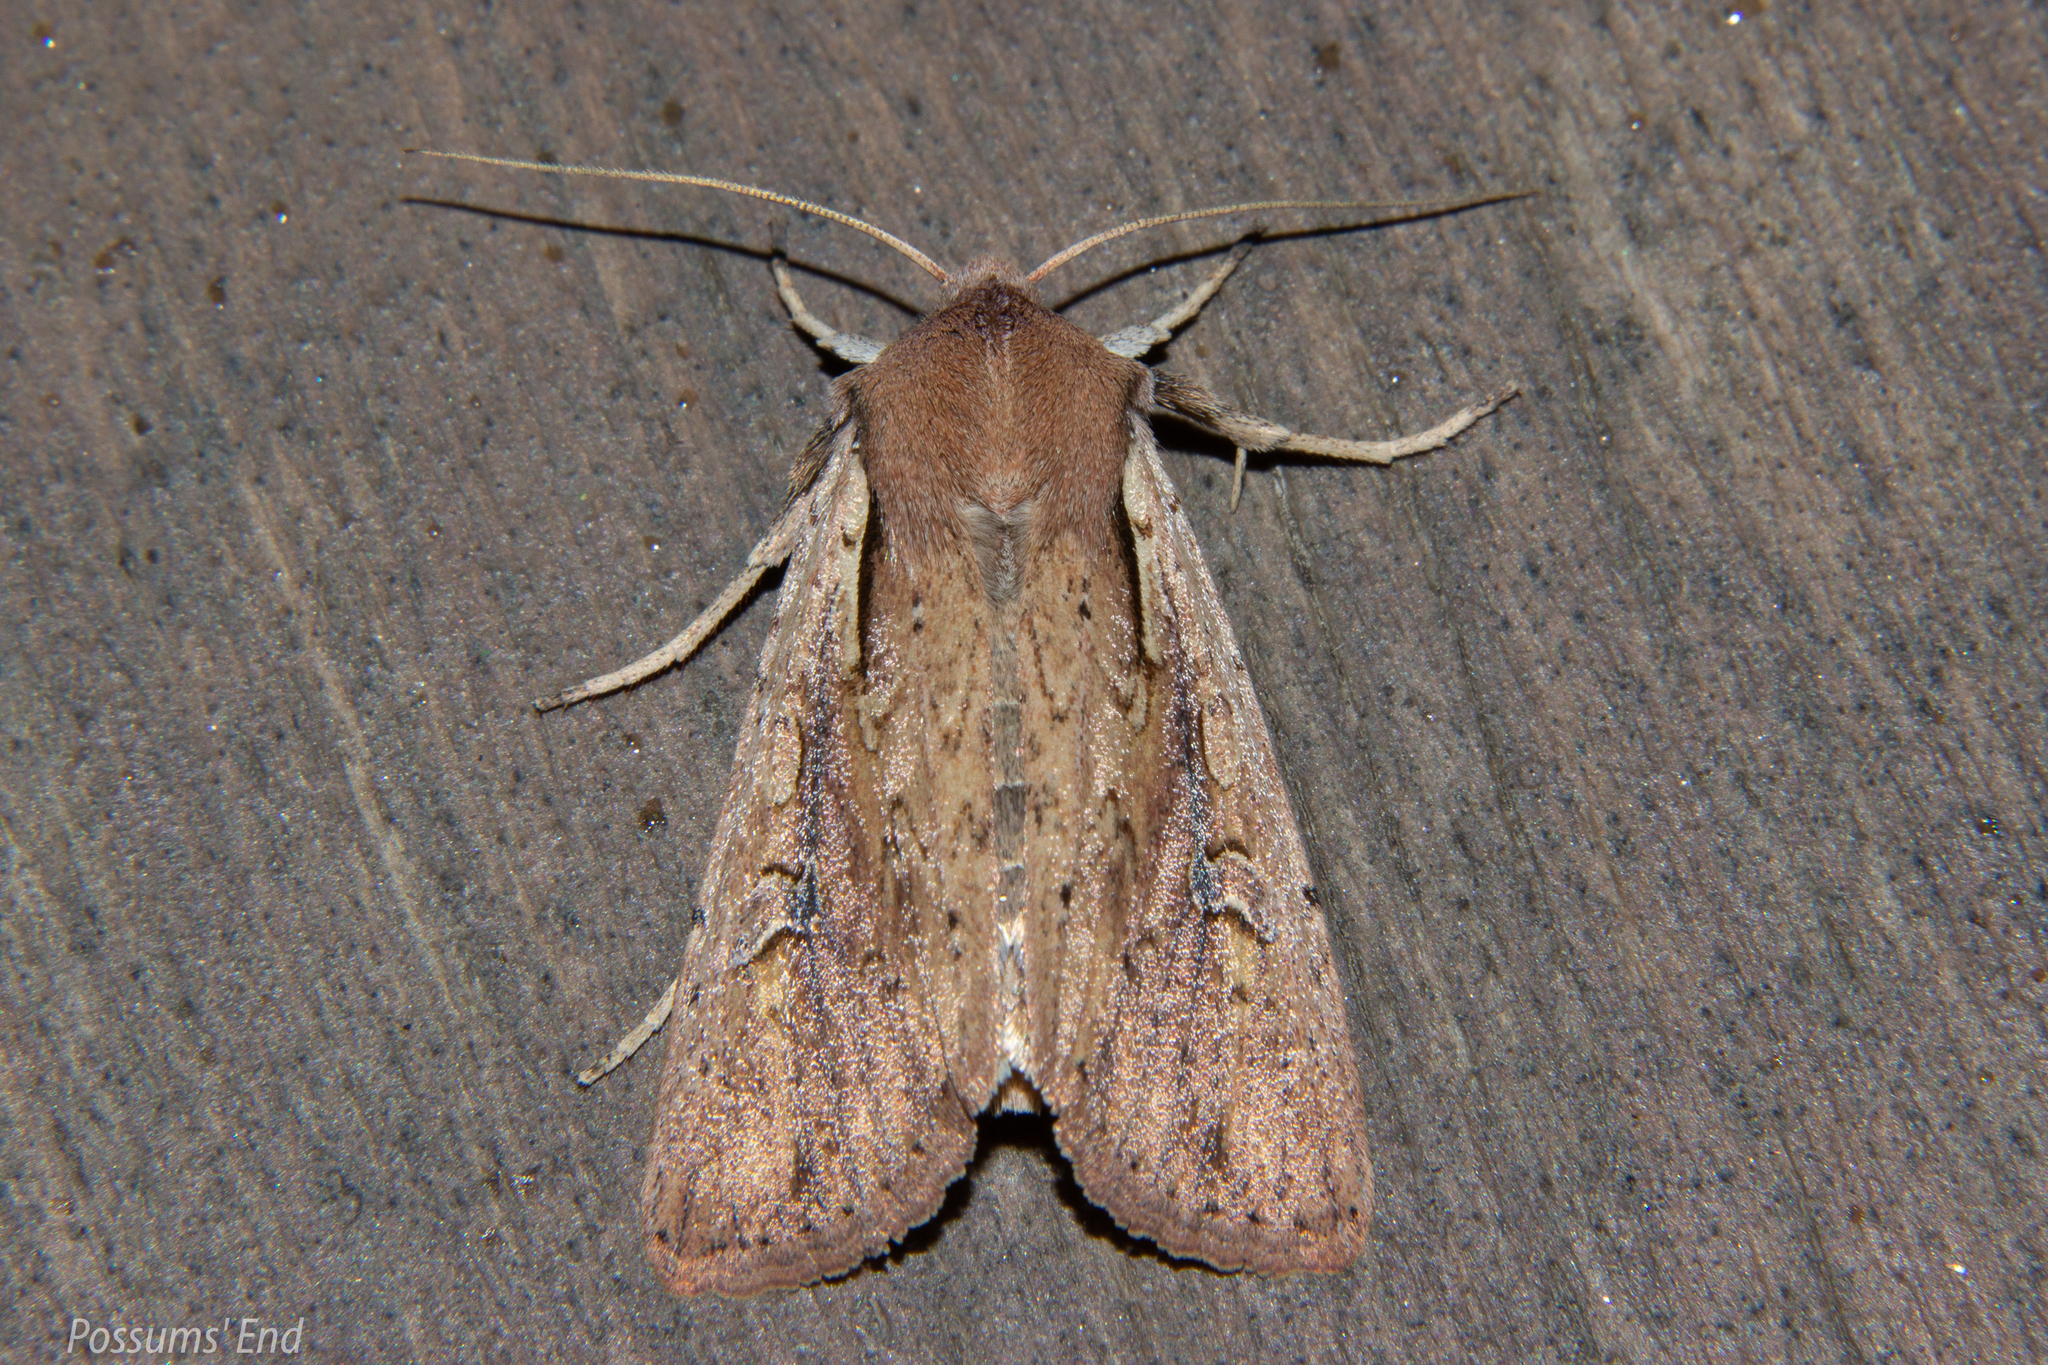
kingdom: Animalia
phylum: Arthropoda
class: Insecta
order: Lepidoptera
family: Noctuidae
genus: Ichneutica
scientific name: Ichneutica atristriga
